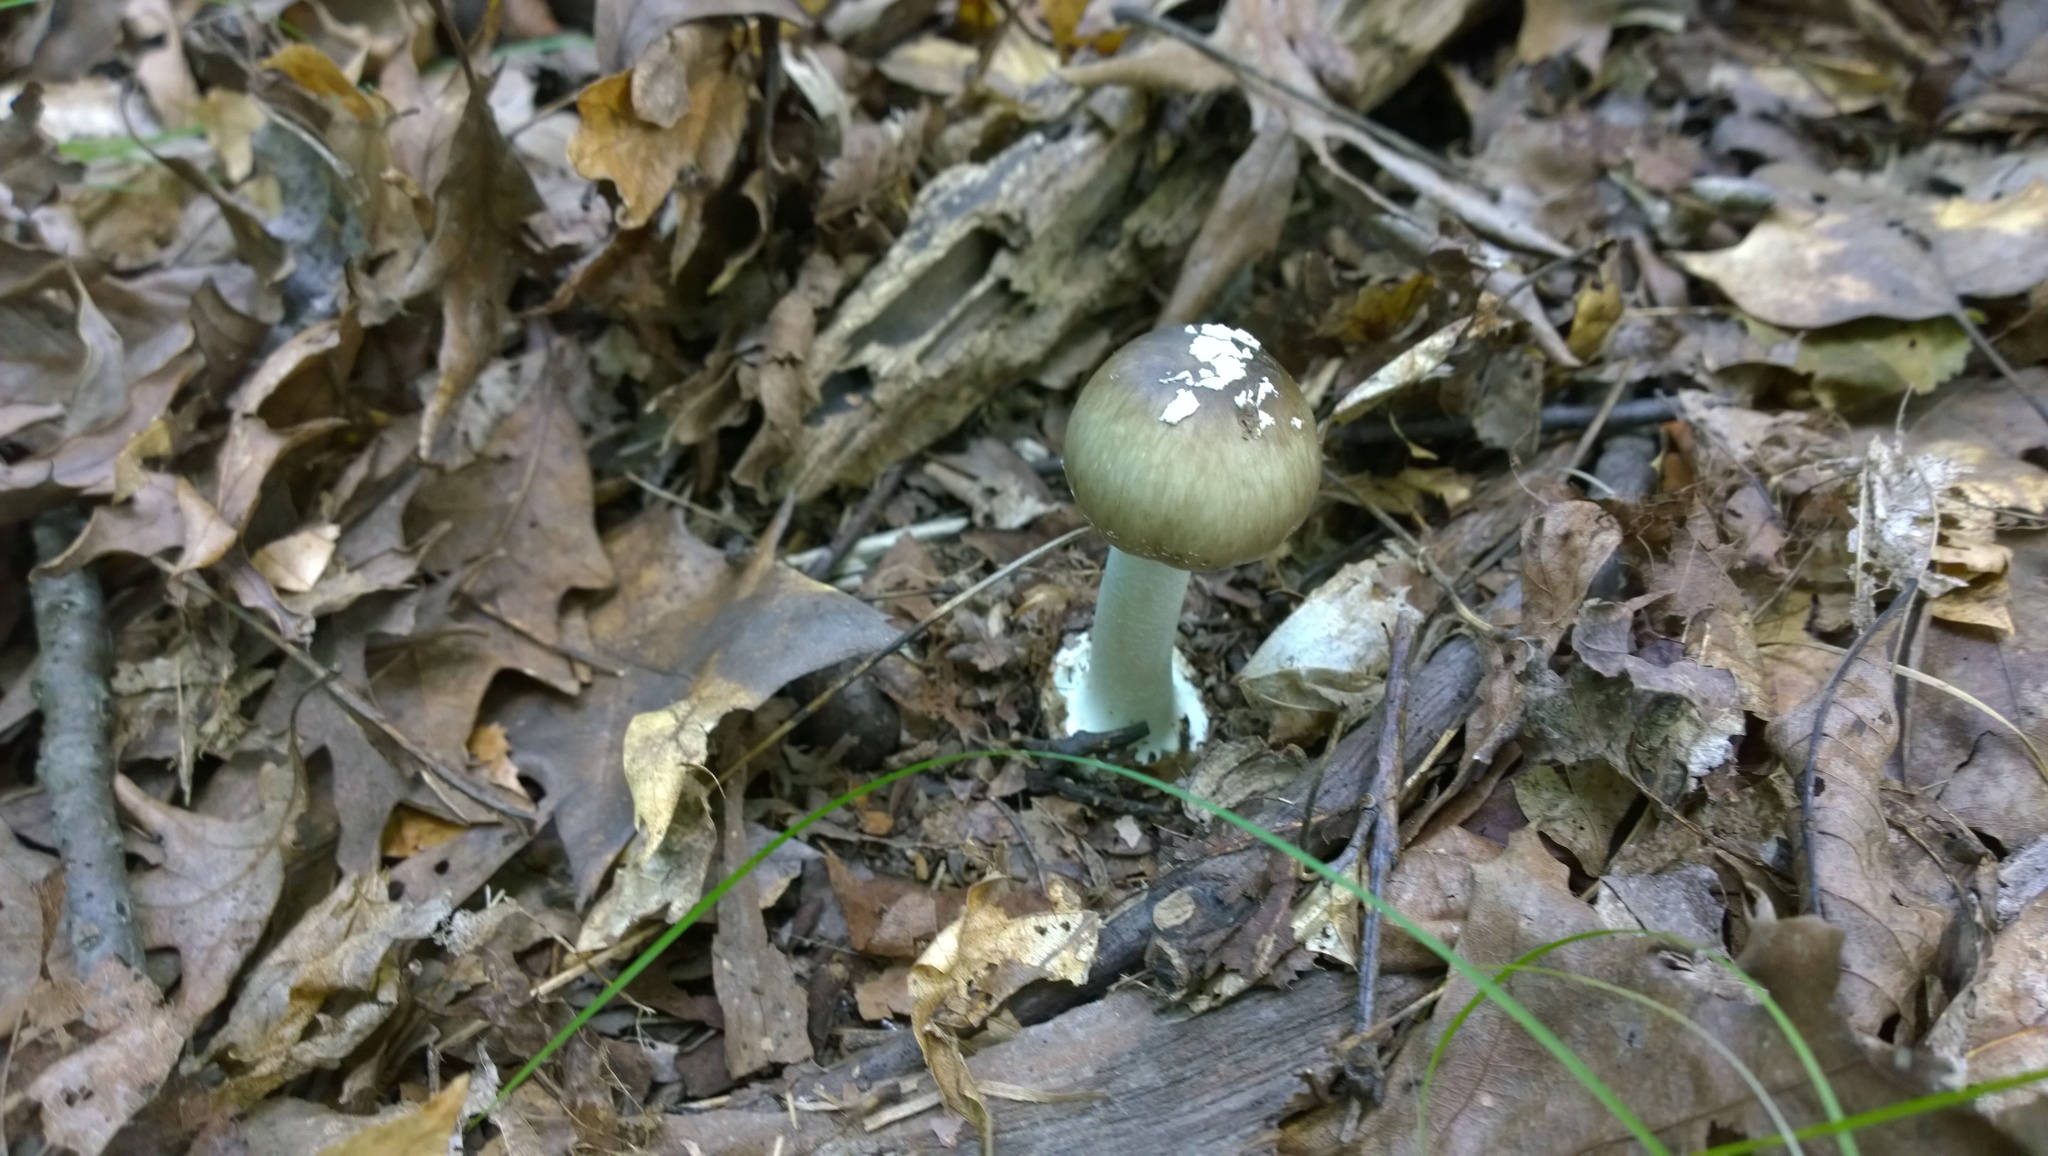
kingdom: Fungi
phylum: Basidiomycota
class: Agaricomycetes
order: Agaricales
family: Amanitaceae
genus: Amanita
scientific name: Amanita solaniolens
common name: Old potato amanita
